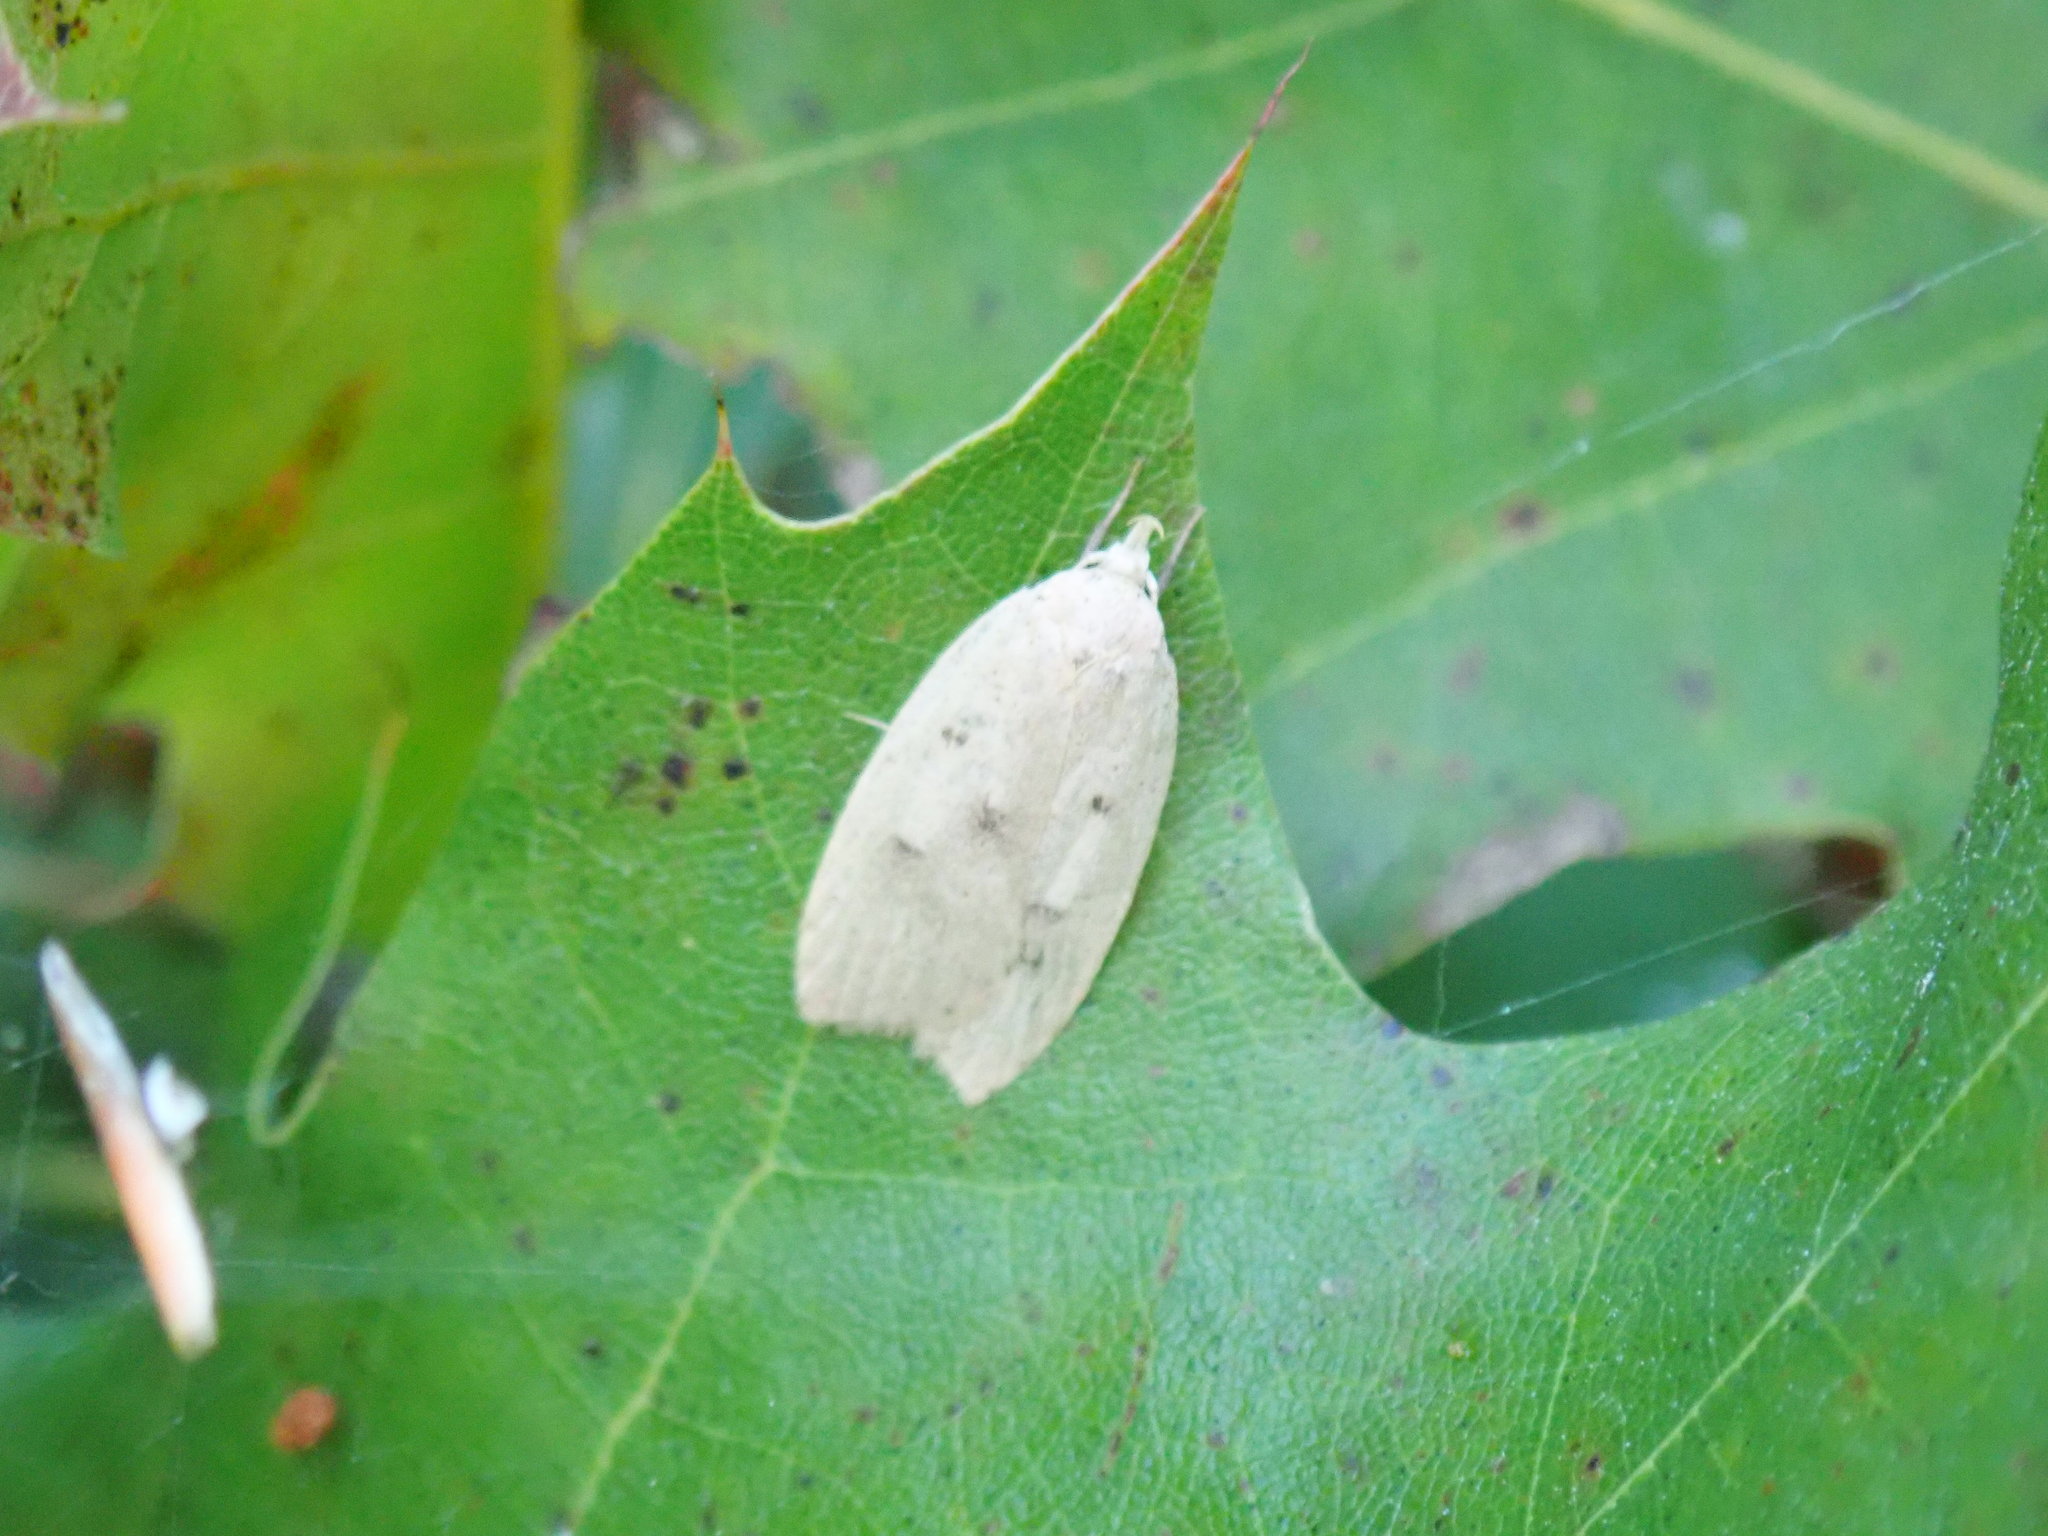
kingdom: Animalia
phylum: Arthropoda
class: Insecta
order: Lepidoptera
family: Peleopodidae
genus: Machimia
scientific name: Machimia tentoriferella
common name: Gold-striped leaftier moth
